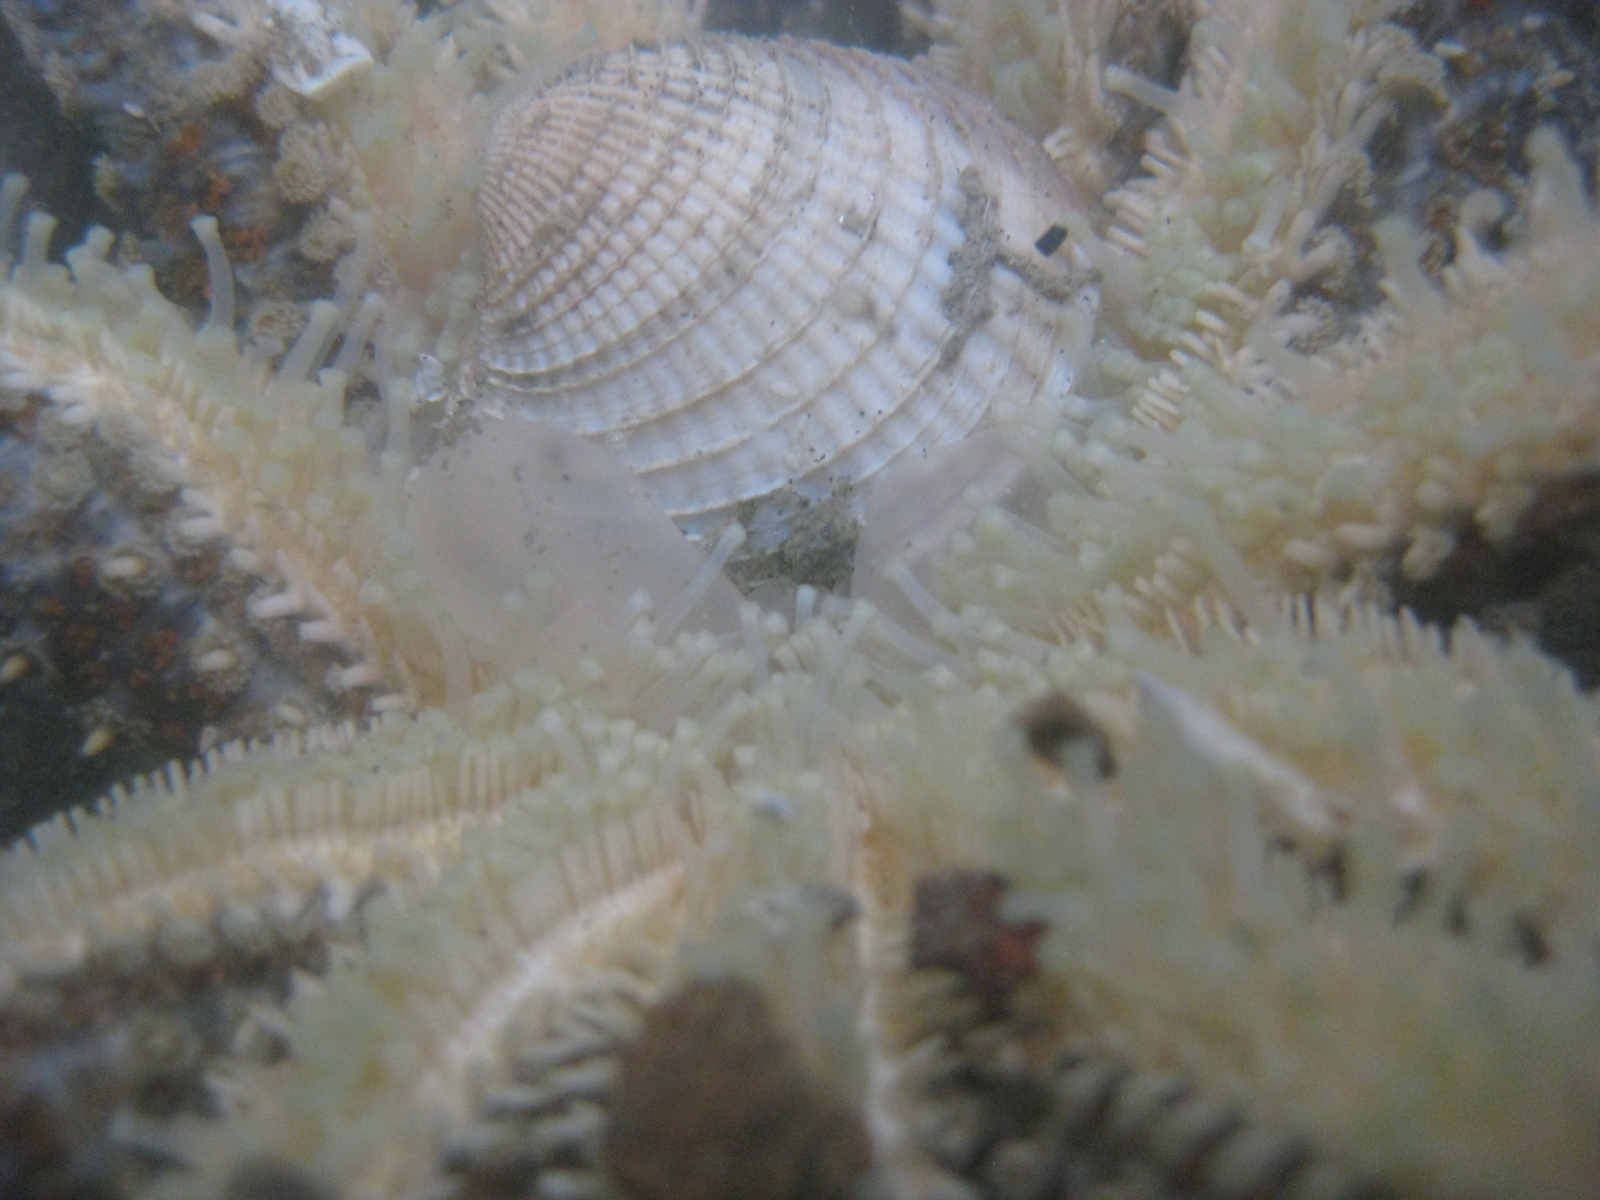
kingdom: Animalia
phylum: Mollusca
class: Bivalvia
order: Venerida
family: Veneridae
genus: Austrovenus
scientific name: Austrovenus stutchburyi
